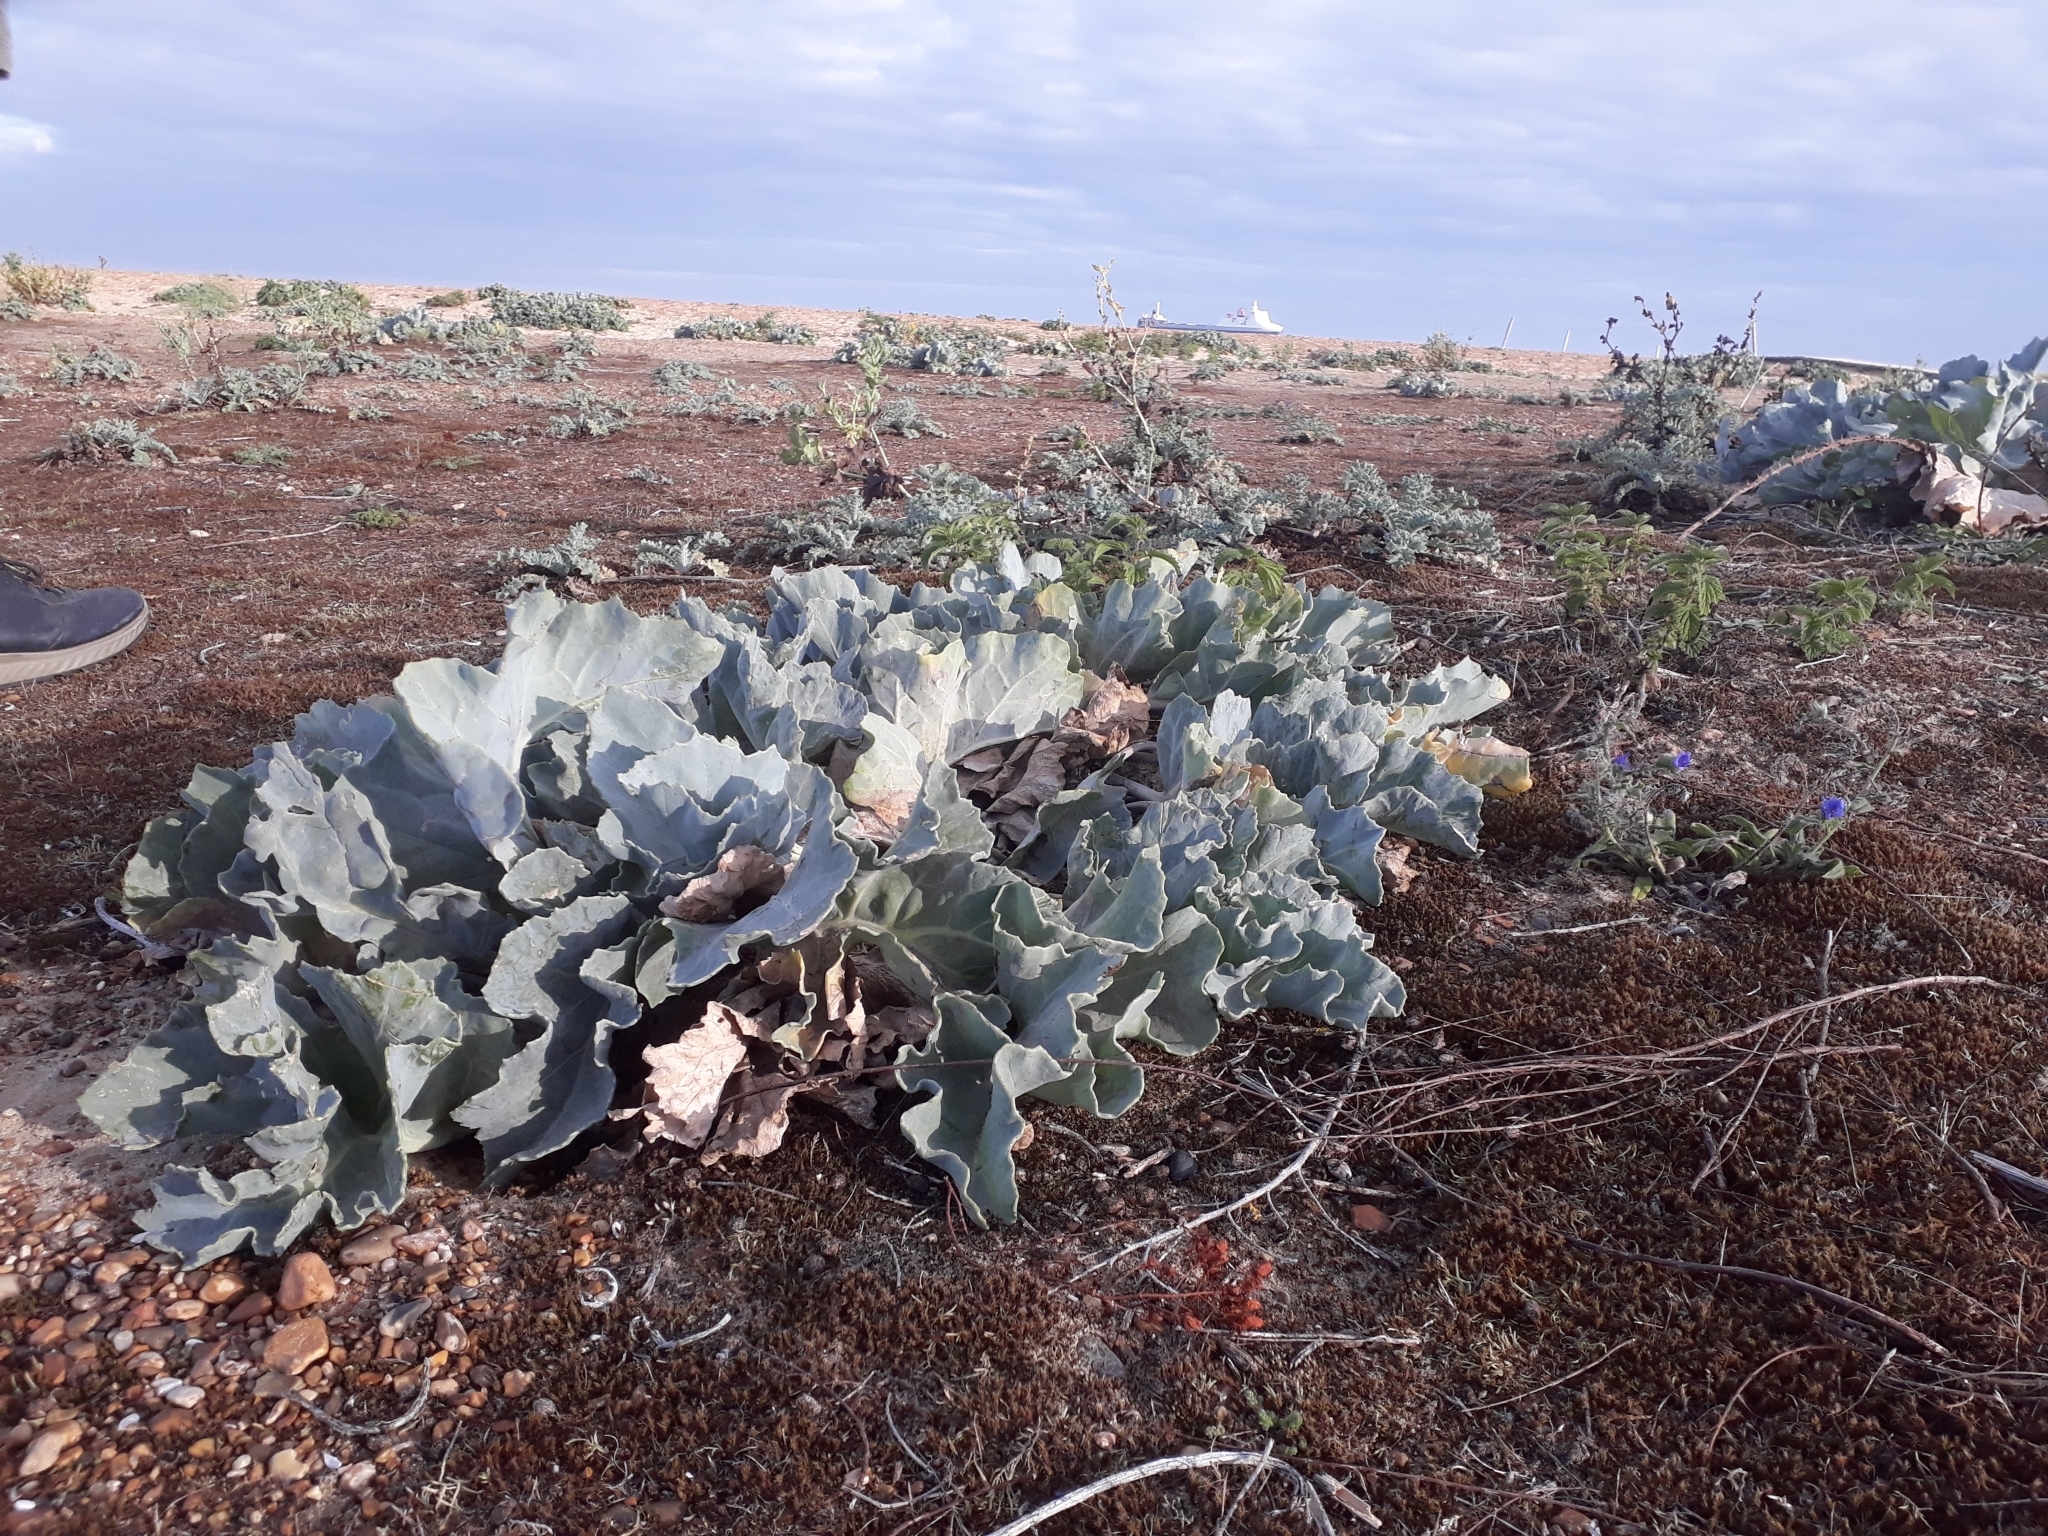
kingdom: Plantae
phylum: Tracheophyta
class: Magnoliopsida
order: Brassicales
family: Brassicaceae
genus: Crambe
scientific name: Crambe maritima
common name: Sea-kale
